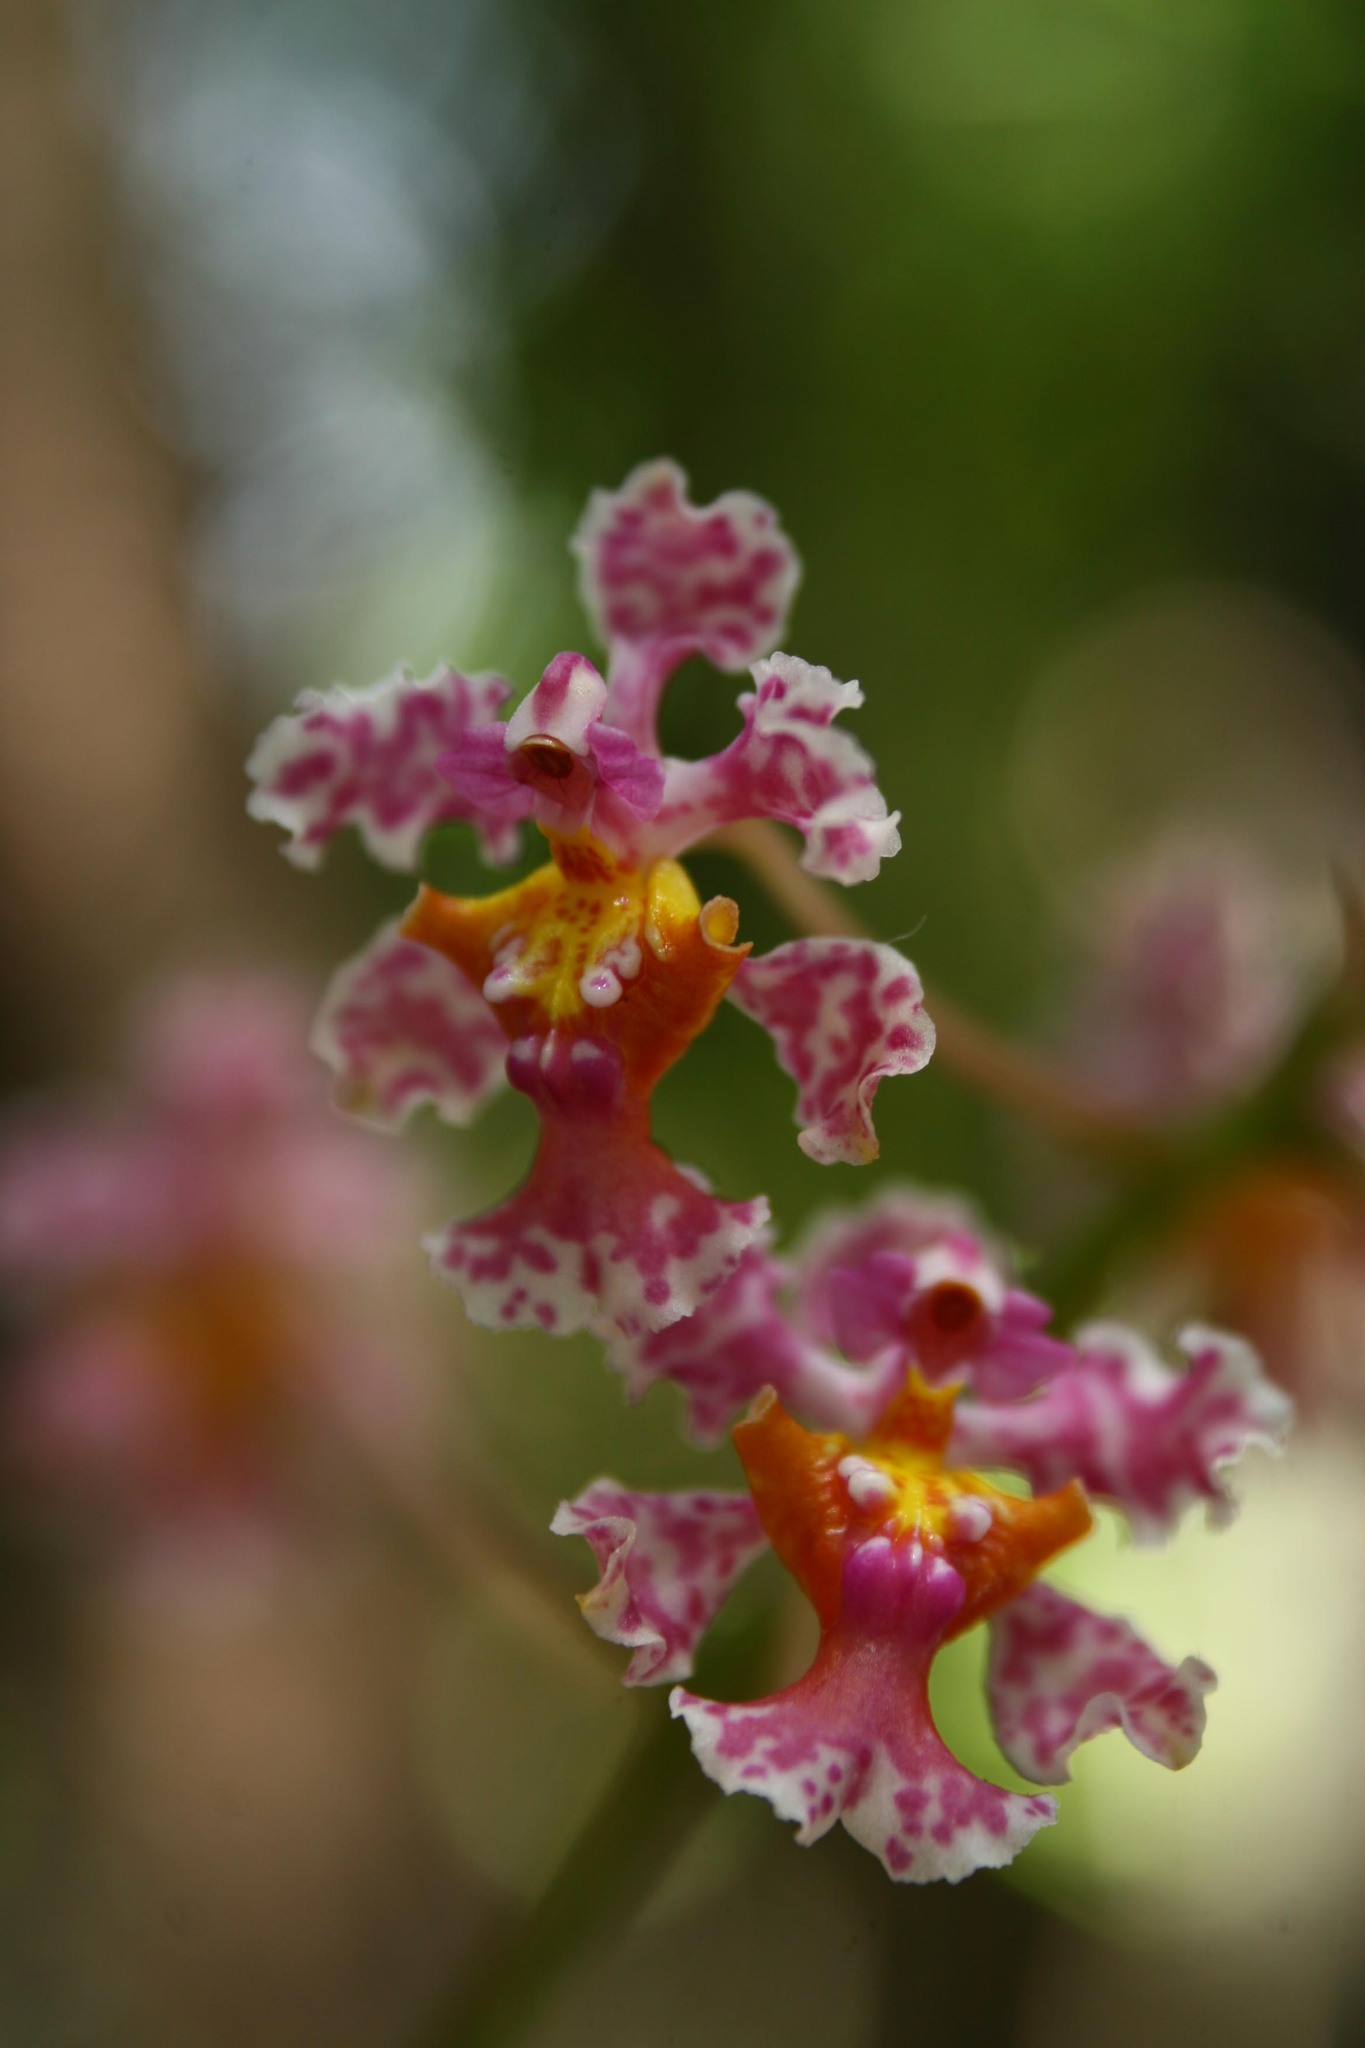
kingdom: Plantae
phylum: Tracheophyta
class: Liliopsida
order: Asparagales
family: Orchidaceae
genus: Trichocentrum
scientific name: Trichocentrum oerstedii
